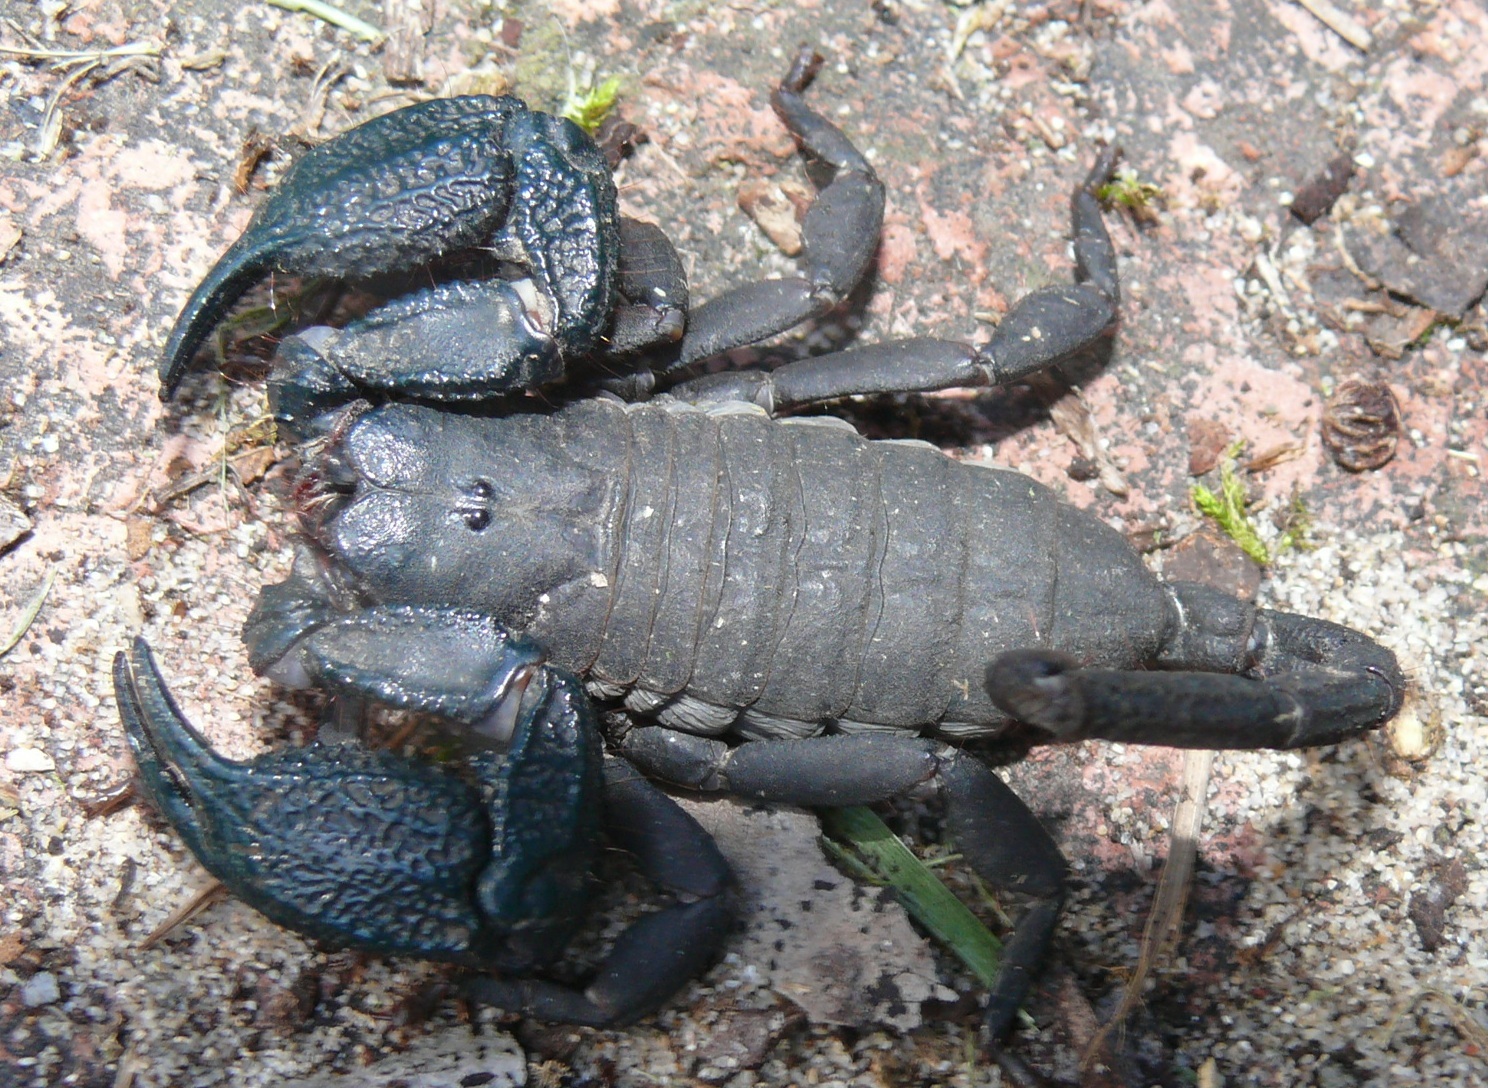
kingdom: Animalia
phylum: Arthropoda
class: Arachnida
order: Scorpiones
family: Hormuridae
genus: Opisthacanthus
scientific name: Opisthacanthus capensis
